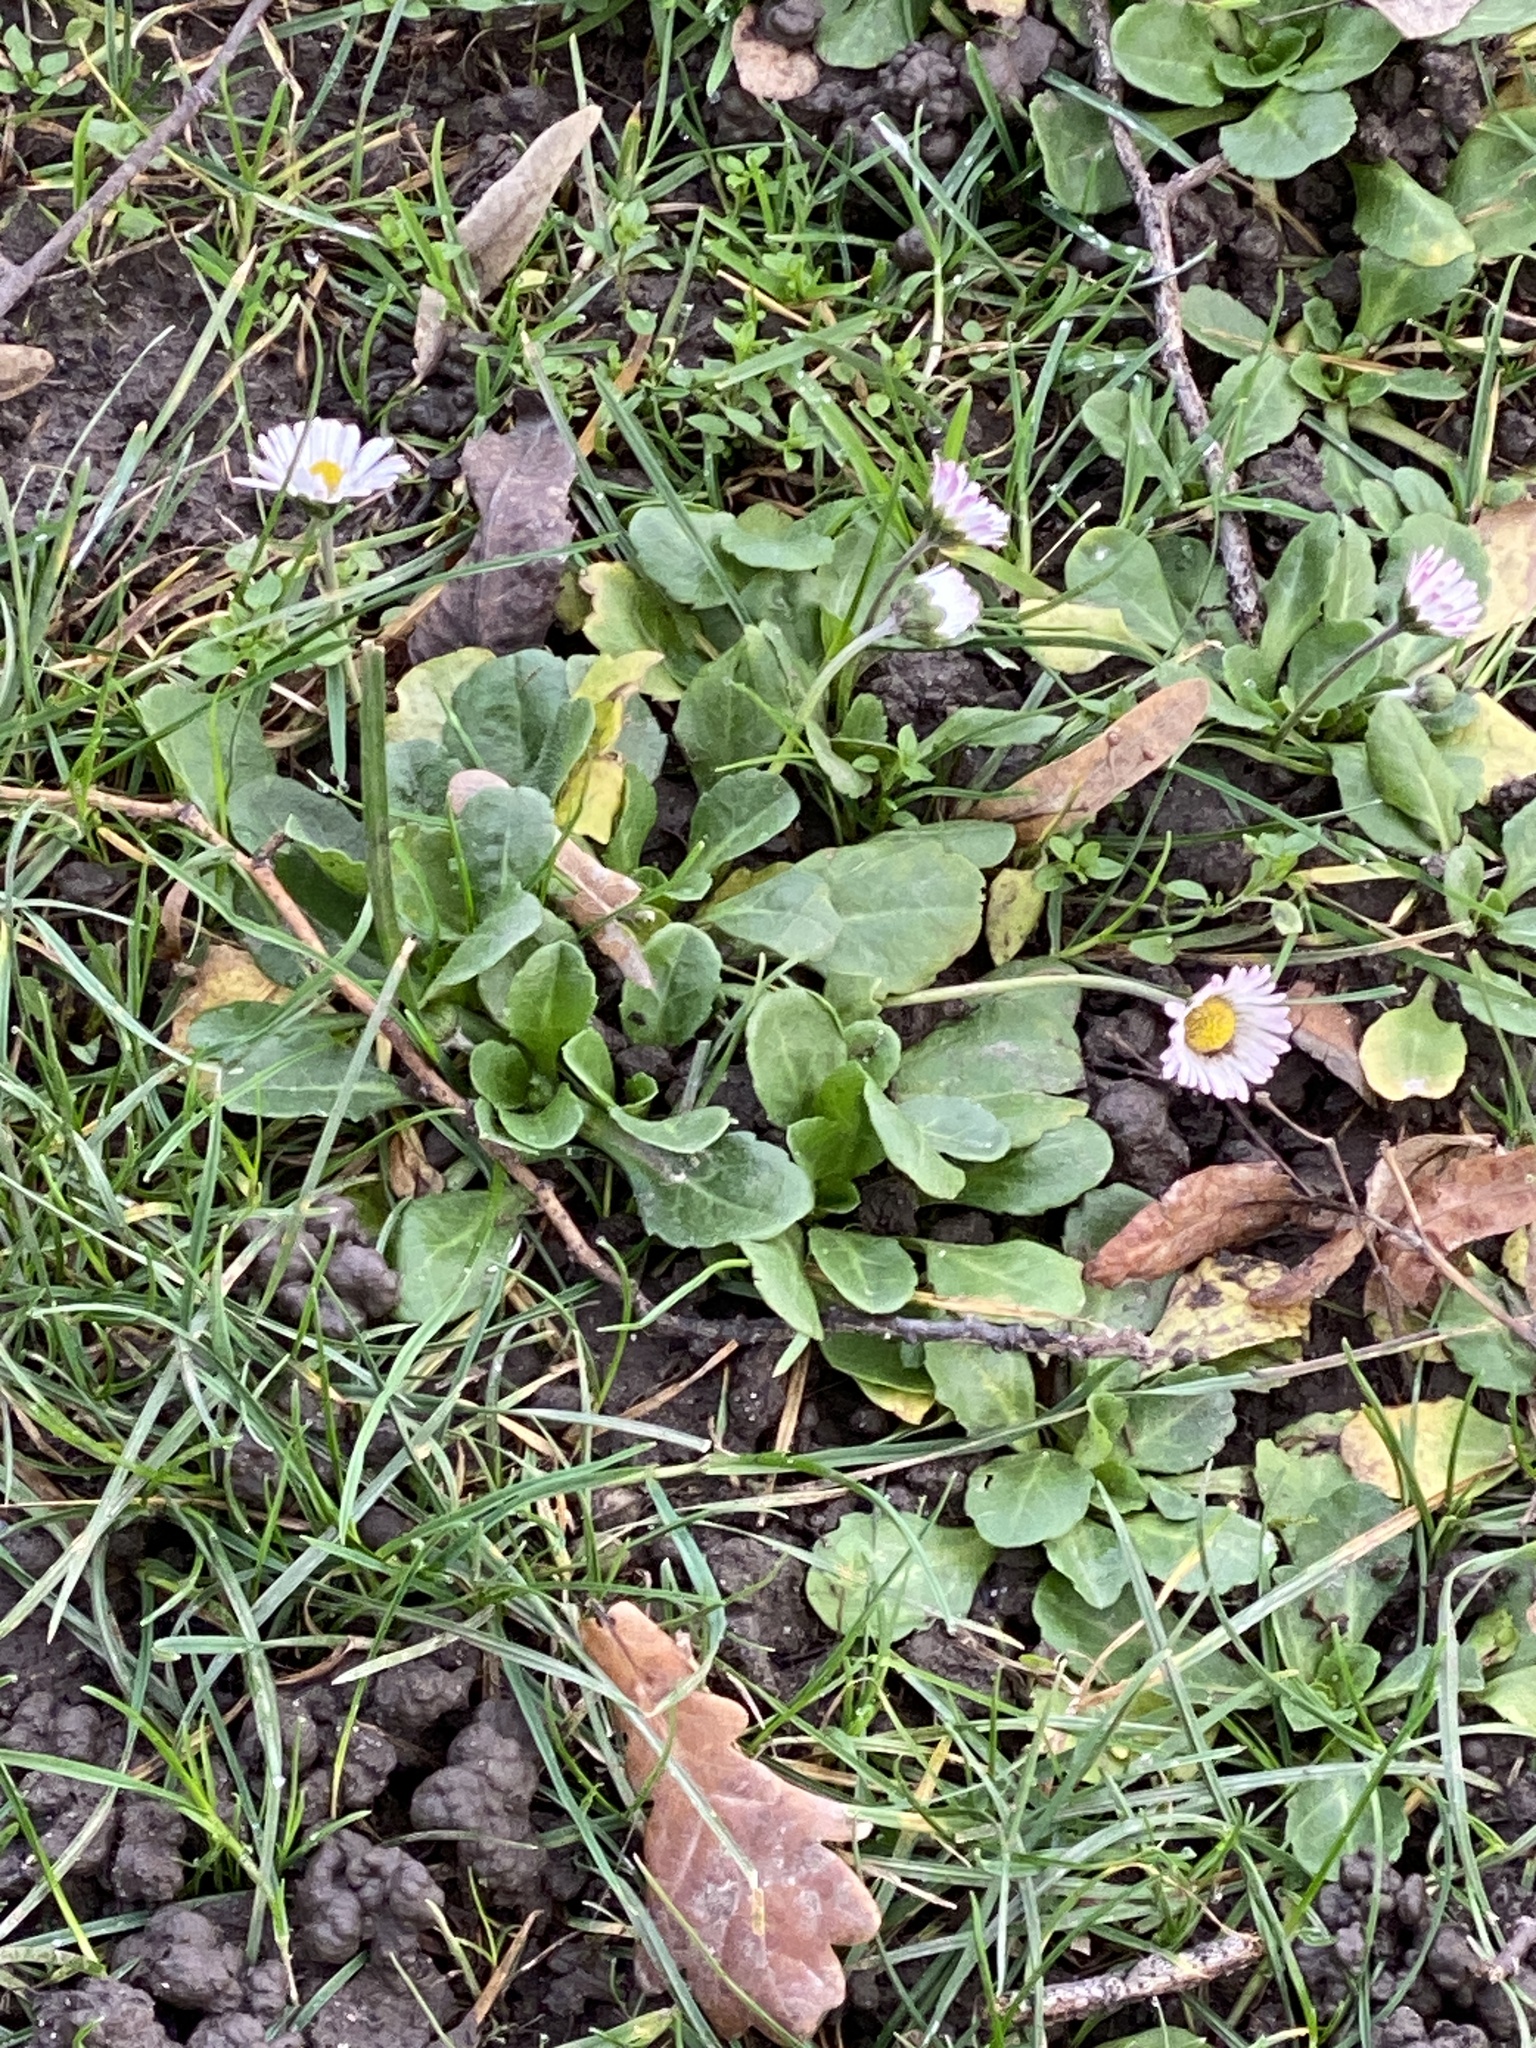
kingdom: Plantae
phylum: Tracheophyta
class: Magnoliopsida
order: Asterales
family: Asteraceae
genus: Bellis
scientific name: Bellis perennis
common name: Lawndaisy
